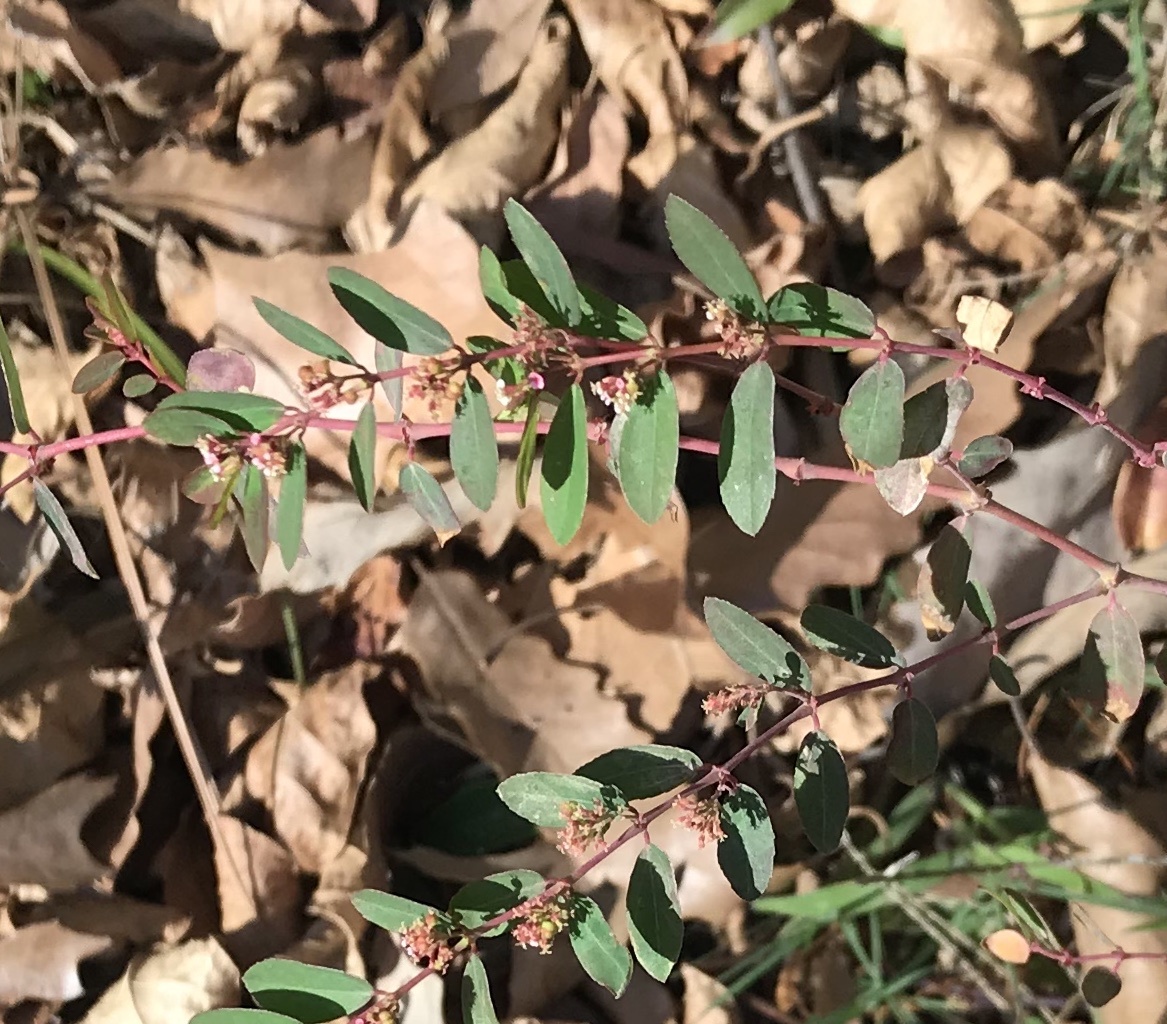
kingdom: Plantae
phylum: Tracheophyta
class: Magnoliopsida
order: Malpighiales
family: Euphorbiaceae
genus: Euphorbia
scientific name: Euphorbia hypericifolia
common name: Graceful sandmat
